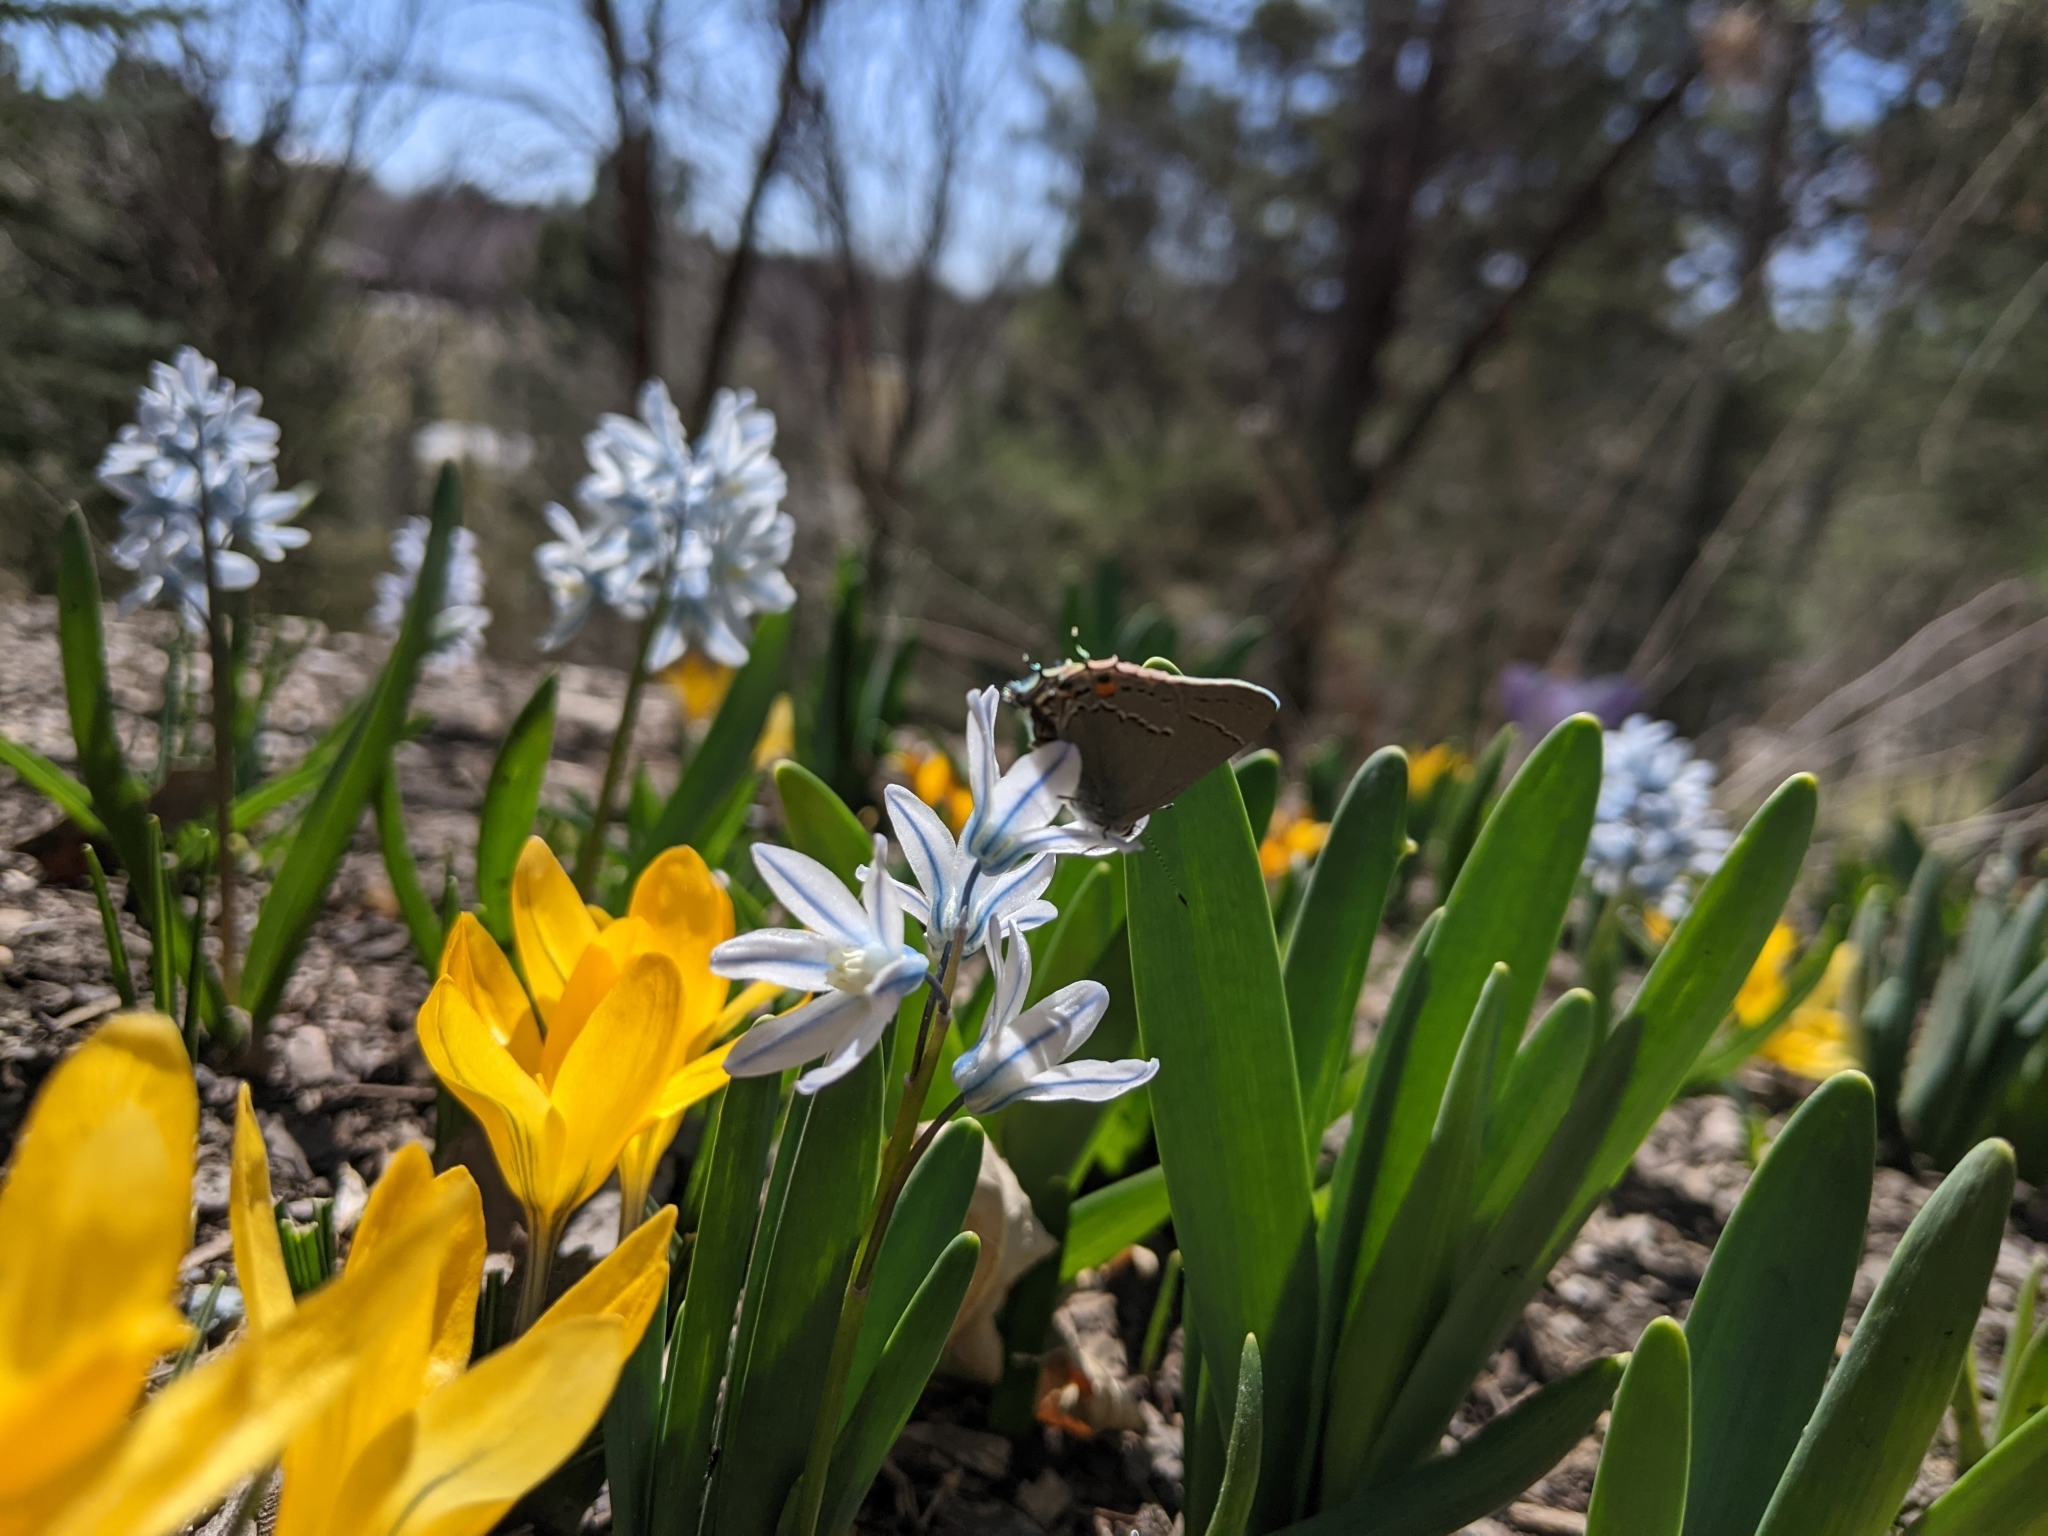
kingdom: Animalia
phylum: Arthropoda
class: Insecta
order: Lepidoptera
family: Lycaenidae
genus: Strymon
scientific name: Strymon melinus
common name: Gray hairstreak
